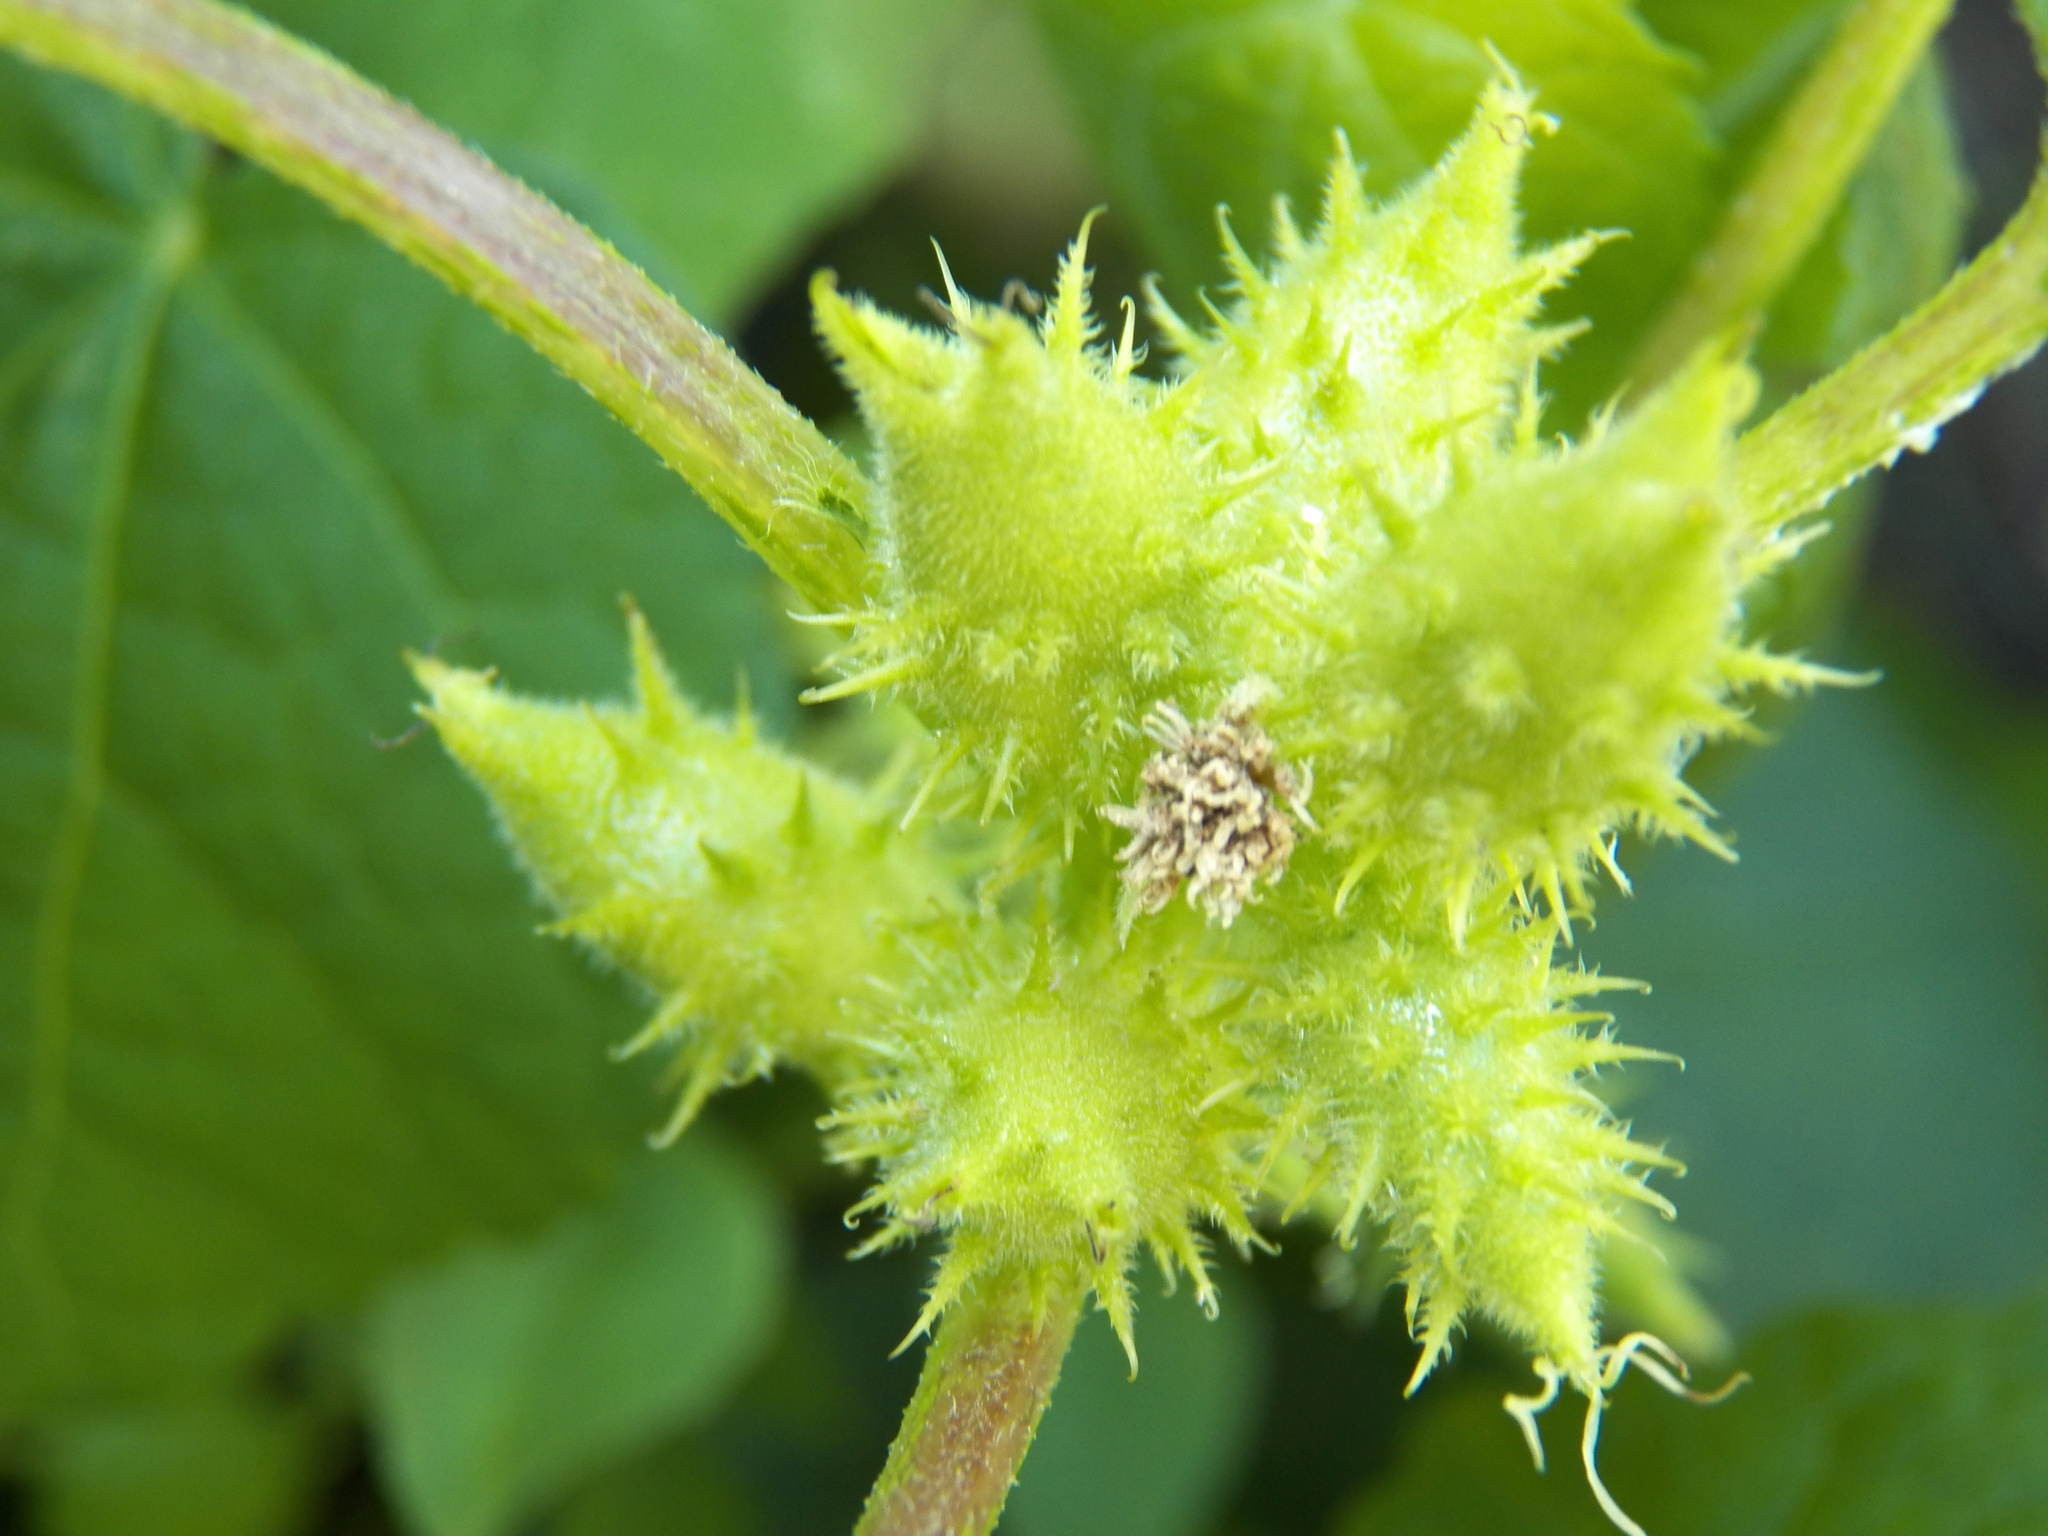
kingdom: Plantae
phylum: Tracheophyta
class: Magnoliopsida
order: Asterales
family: Asteraceae
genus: Xanthium
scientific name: Xanthium strumarium
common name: Rough cocklebur
